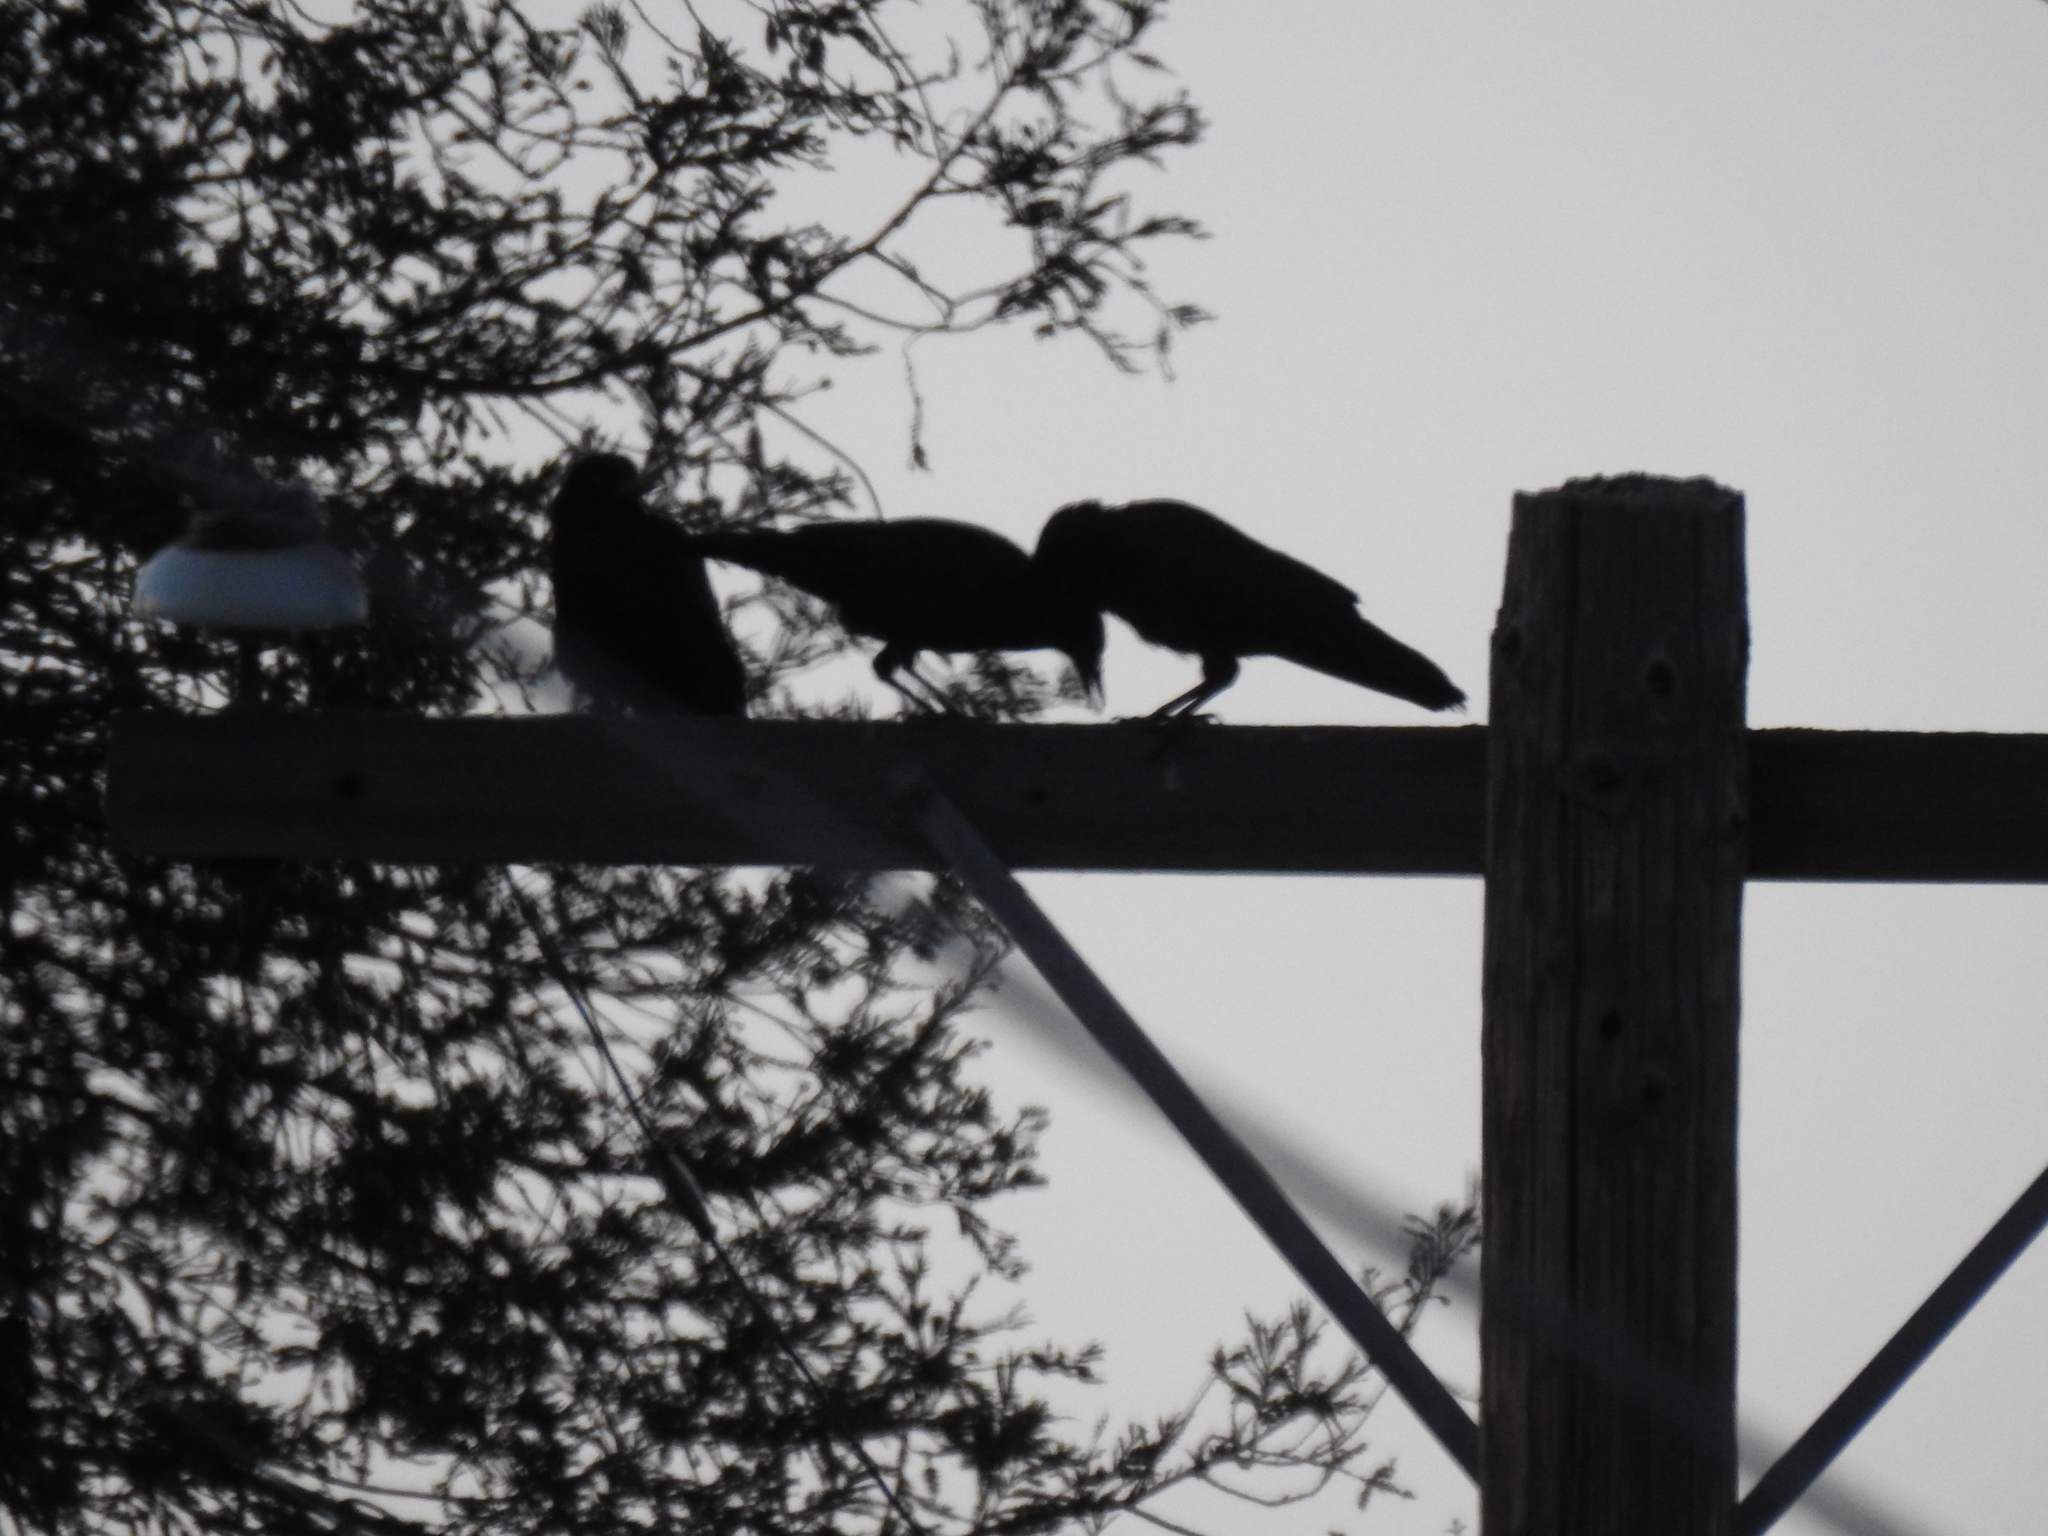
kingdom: Animalia
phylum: Chordata
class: Aves
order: Passeriformes
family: Corvidae
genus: Corvus
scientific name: Corvus brachyrhynchos
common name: American crow
